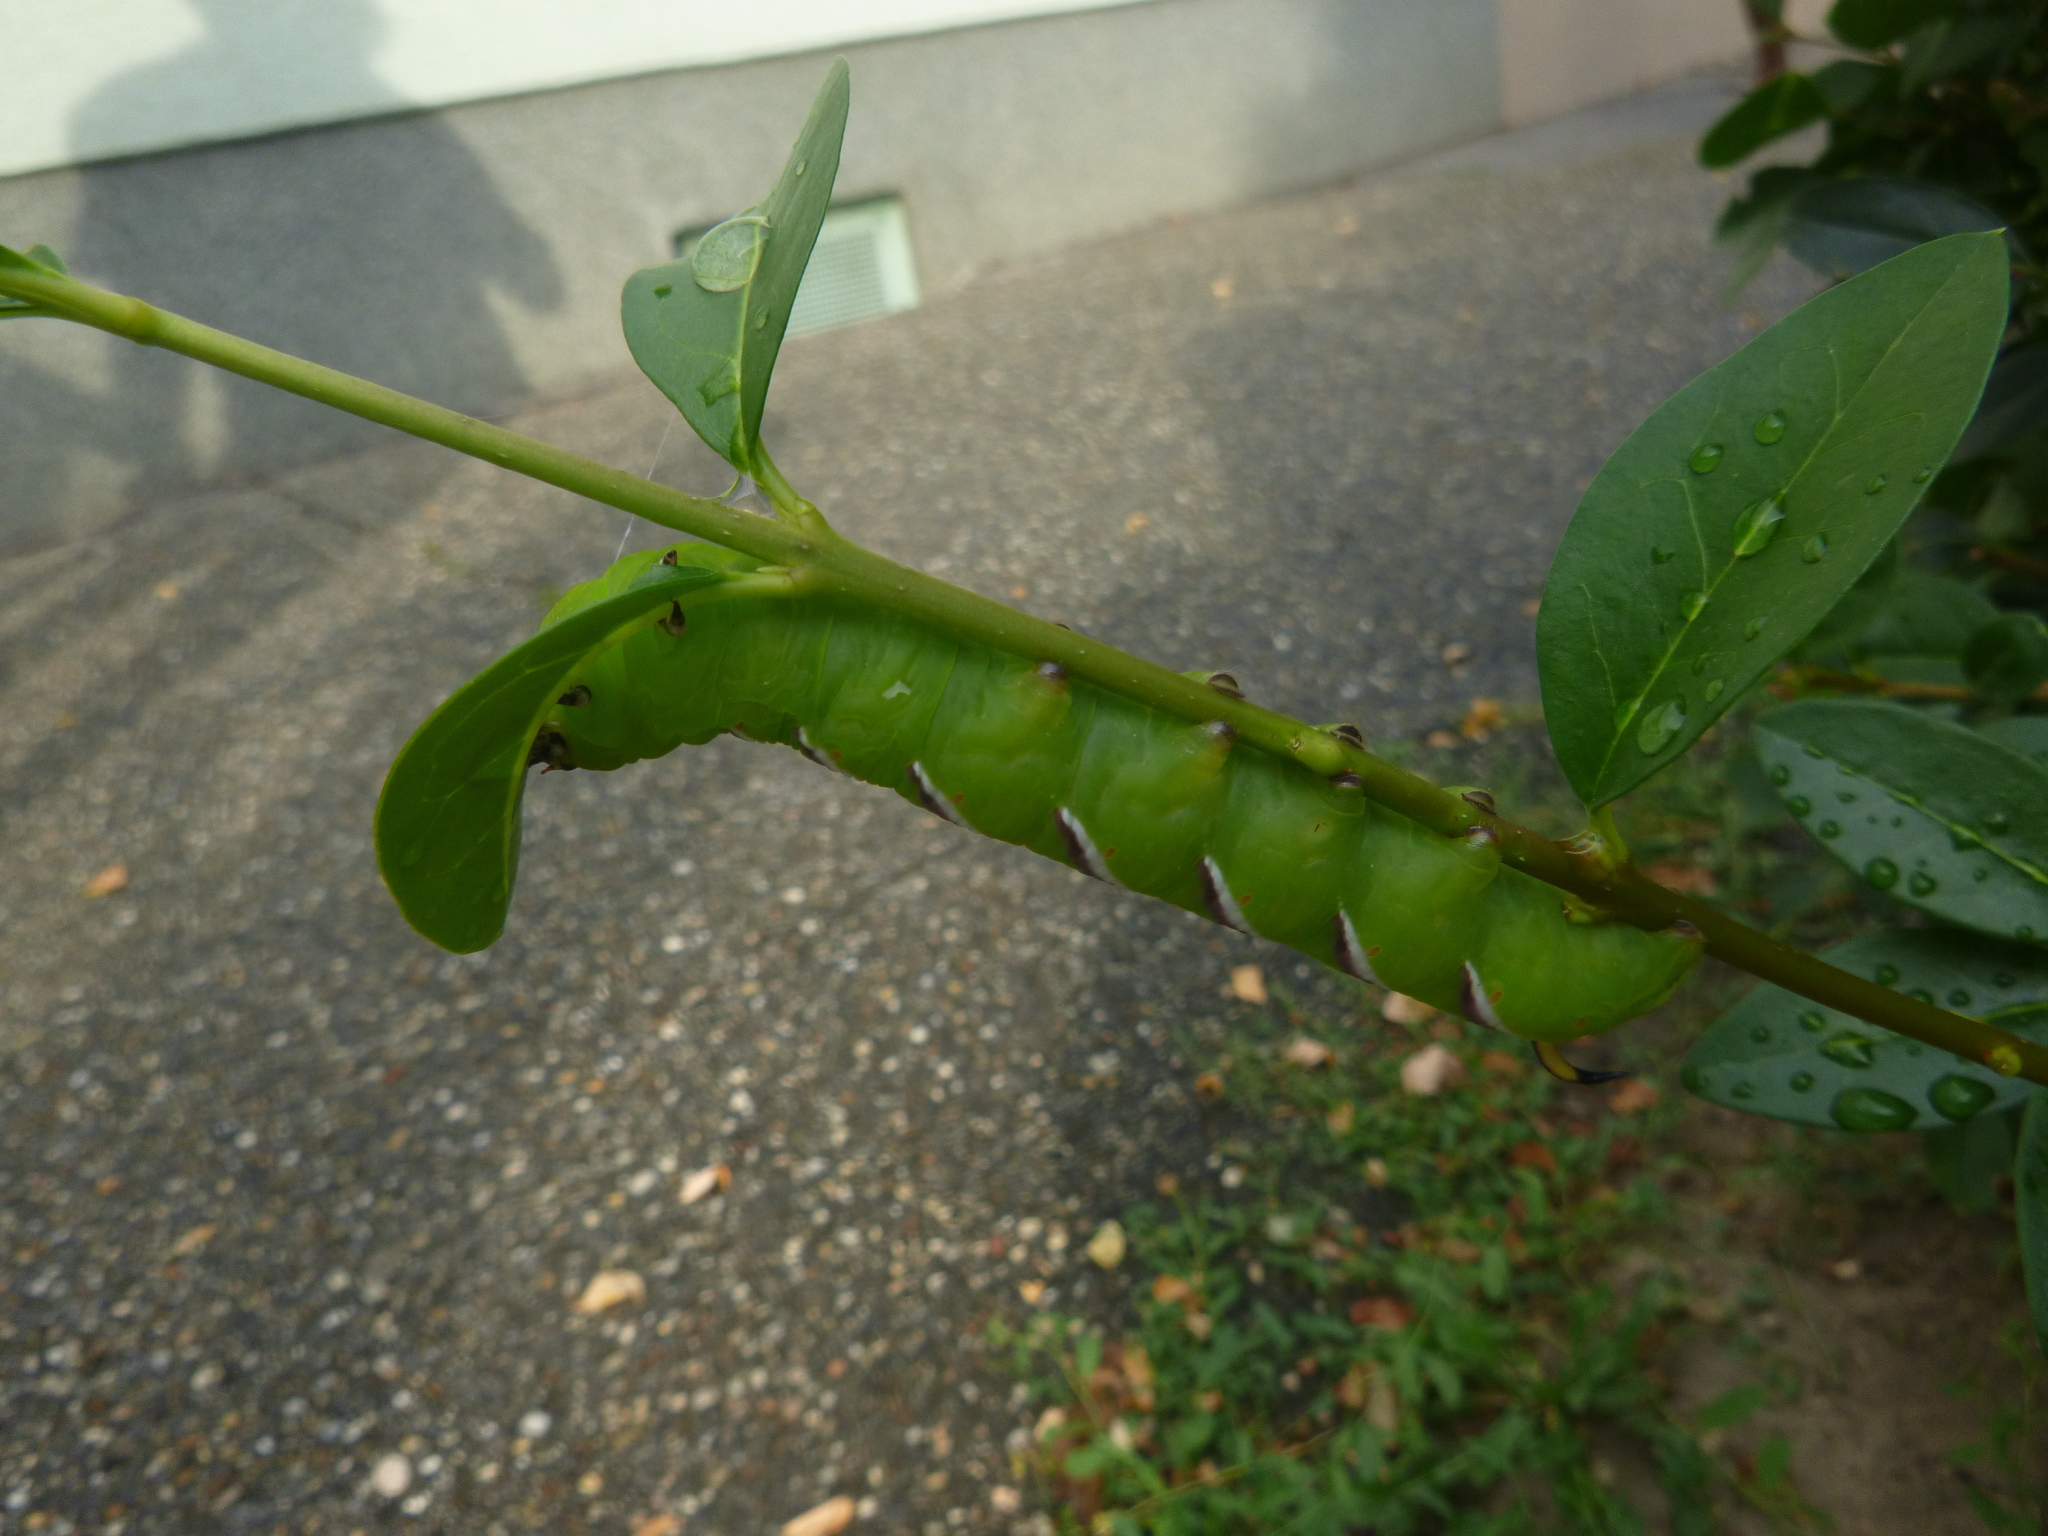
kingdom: Animalia
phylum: Arthropoda
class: Insecta
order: Lepidoptera
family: Sphingidae
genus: Sphinx
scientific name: Sphinx ligustri
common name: Privet hawk-moth
